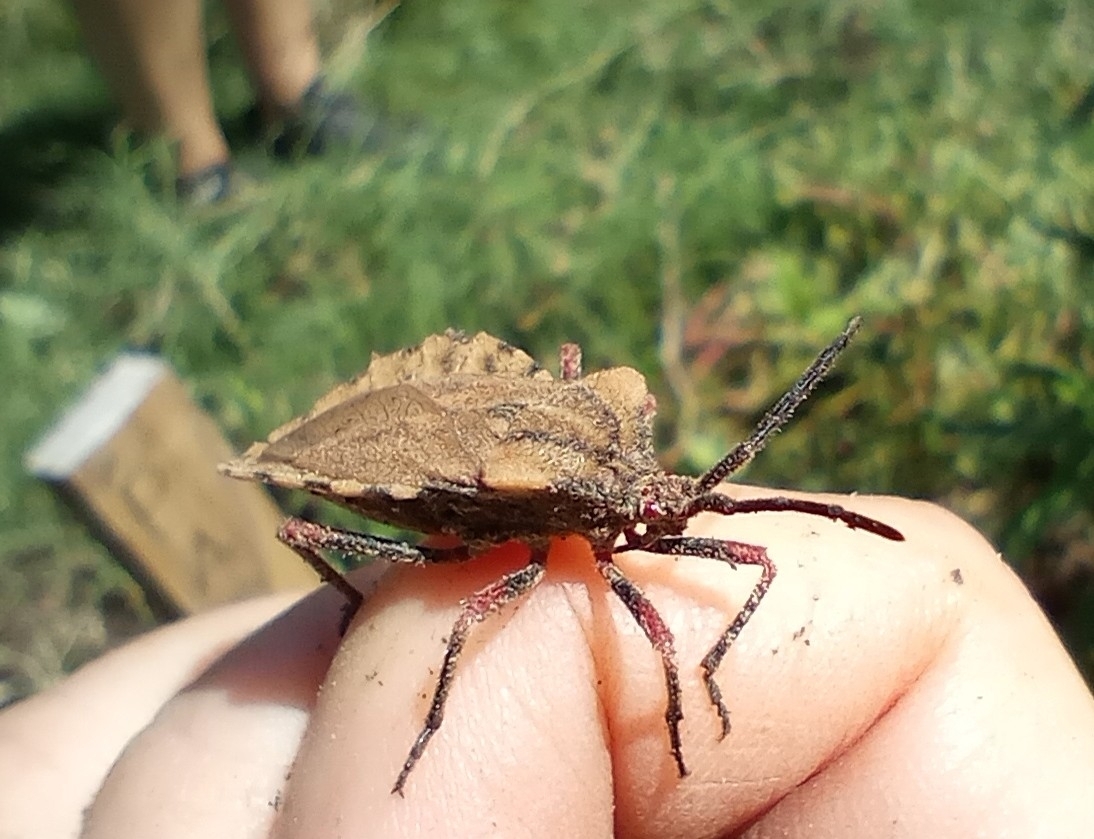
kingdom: Animalia
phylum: Arthropoda
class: Insecta
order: Hemiptera
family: Coreidae
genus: Spartocera
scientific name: Spartocera fusca
